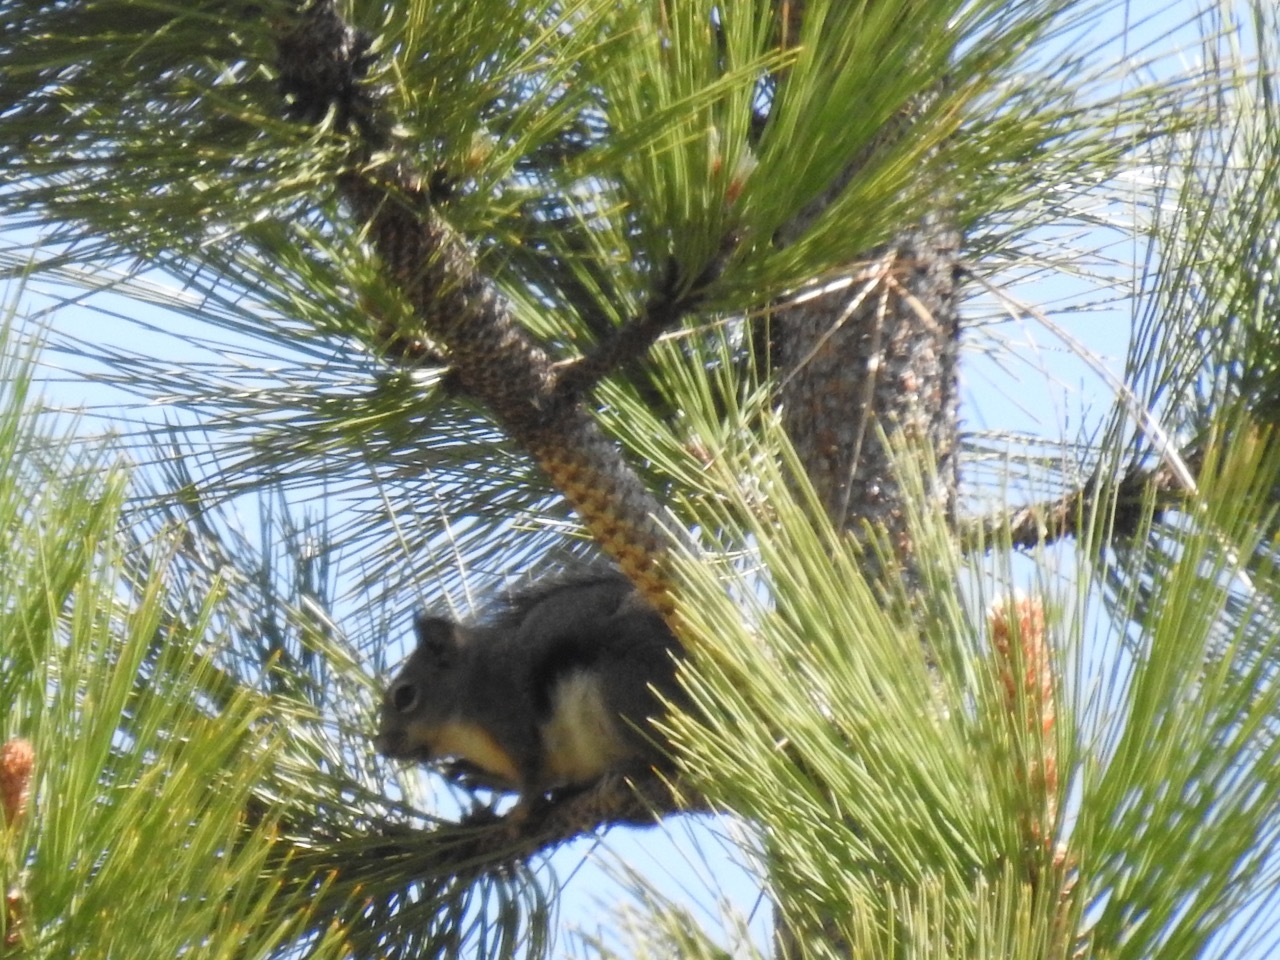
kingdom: Animalia
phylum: Chordata
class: Mammalia
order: Rodentia
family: Sciuridae
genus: Tamiasciurus
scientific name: Tamiasciurus douglasii
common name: Douglas's squirrel
